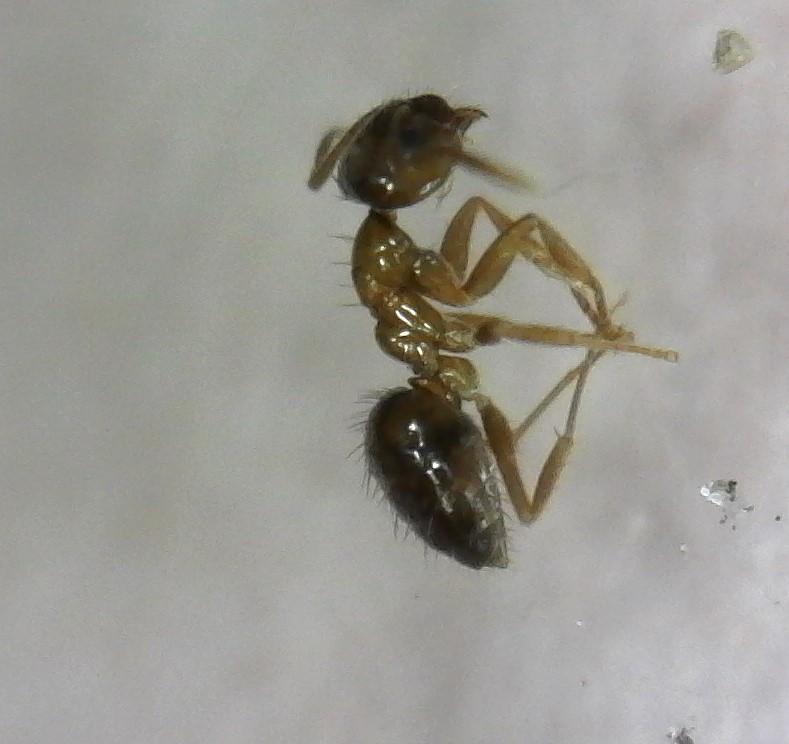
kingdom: Animalia
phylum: Arthropoda
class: Insecta
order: Hymenoptera
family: Formicidae
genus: Paratrechina
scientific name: Paratrechina flavipes
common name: Eastern asian formicine ant
